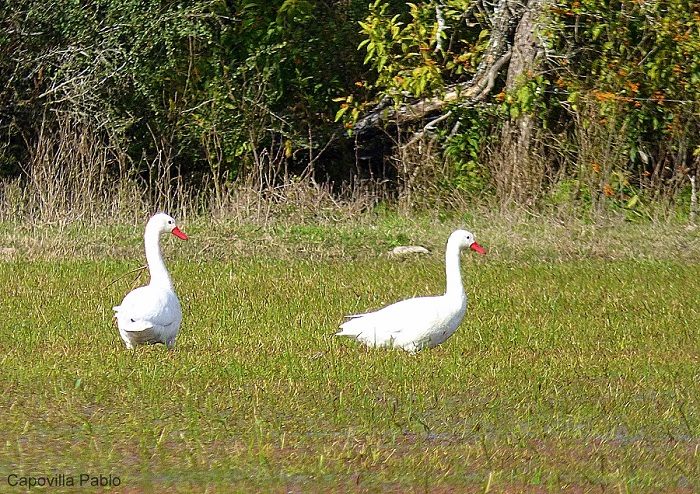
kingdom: Animalia
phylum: Chordata
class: Aves
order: Anseriformes
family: Anatidae
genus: Coscoroba
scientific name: Coscoroba coscoroba
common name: Coscoroba swan
